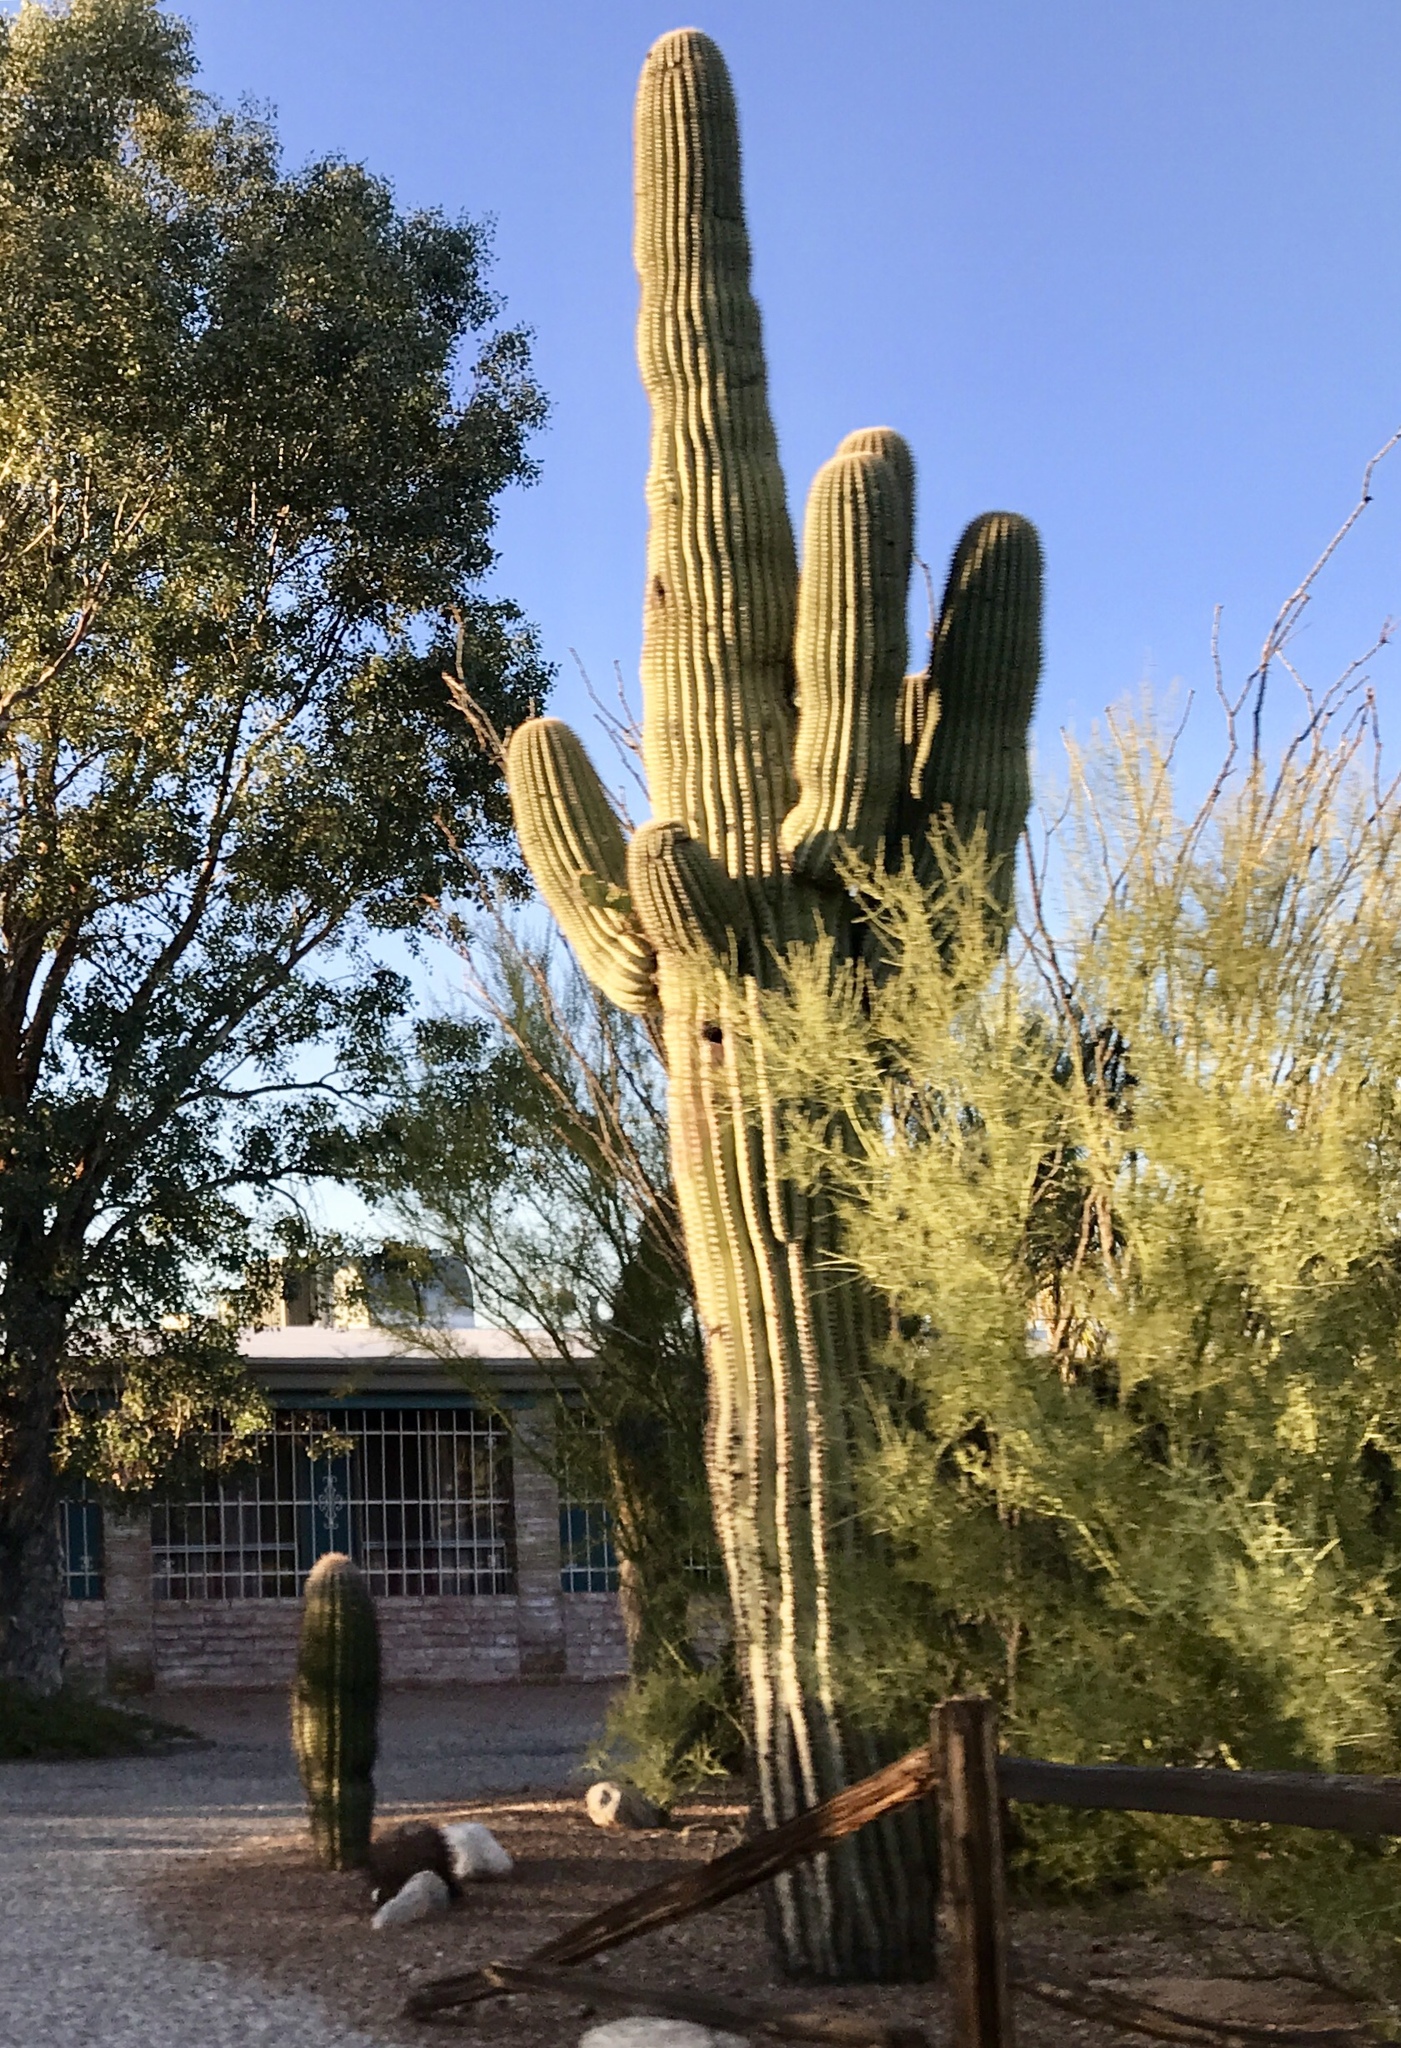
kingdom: Plantae
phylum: Tracheophyta
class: Magnoliopsida
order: Caryophyllales
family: Cactaceae
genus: Carnegiea
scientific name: Carnegiea gigantea
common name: Saguaro
